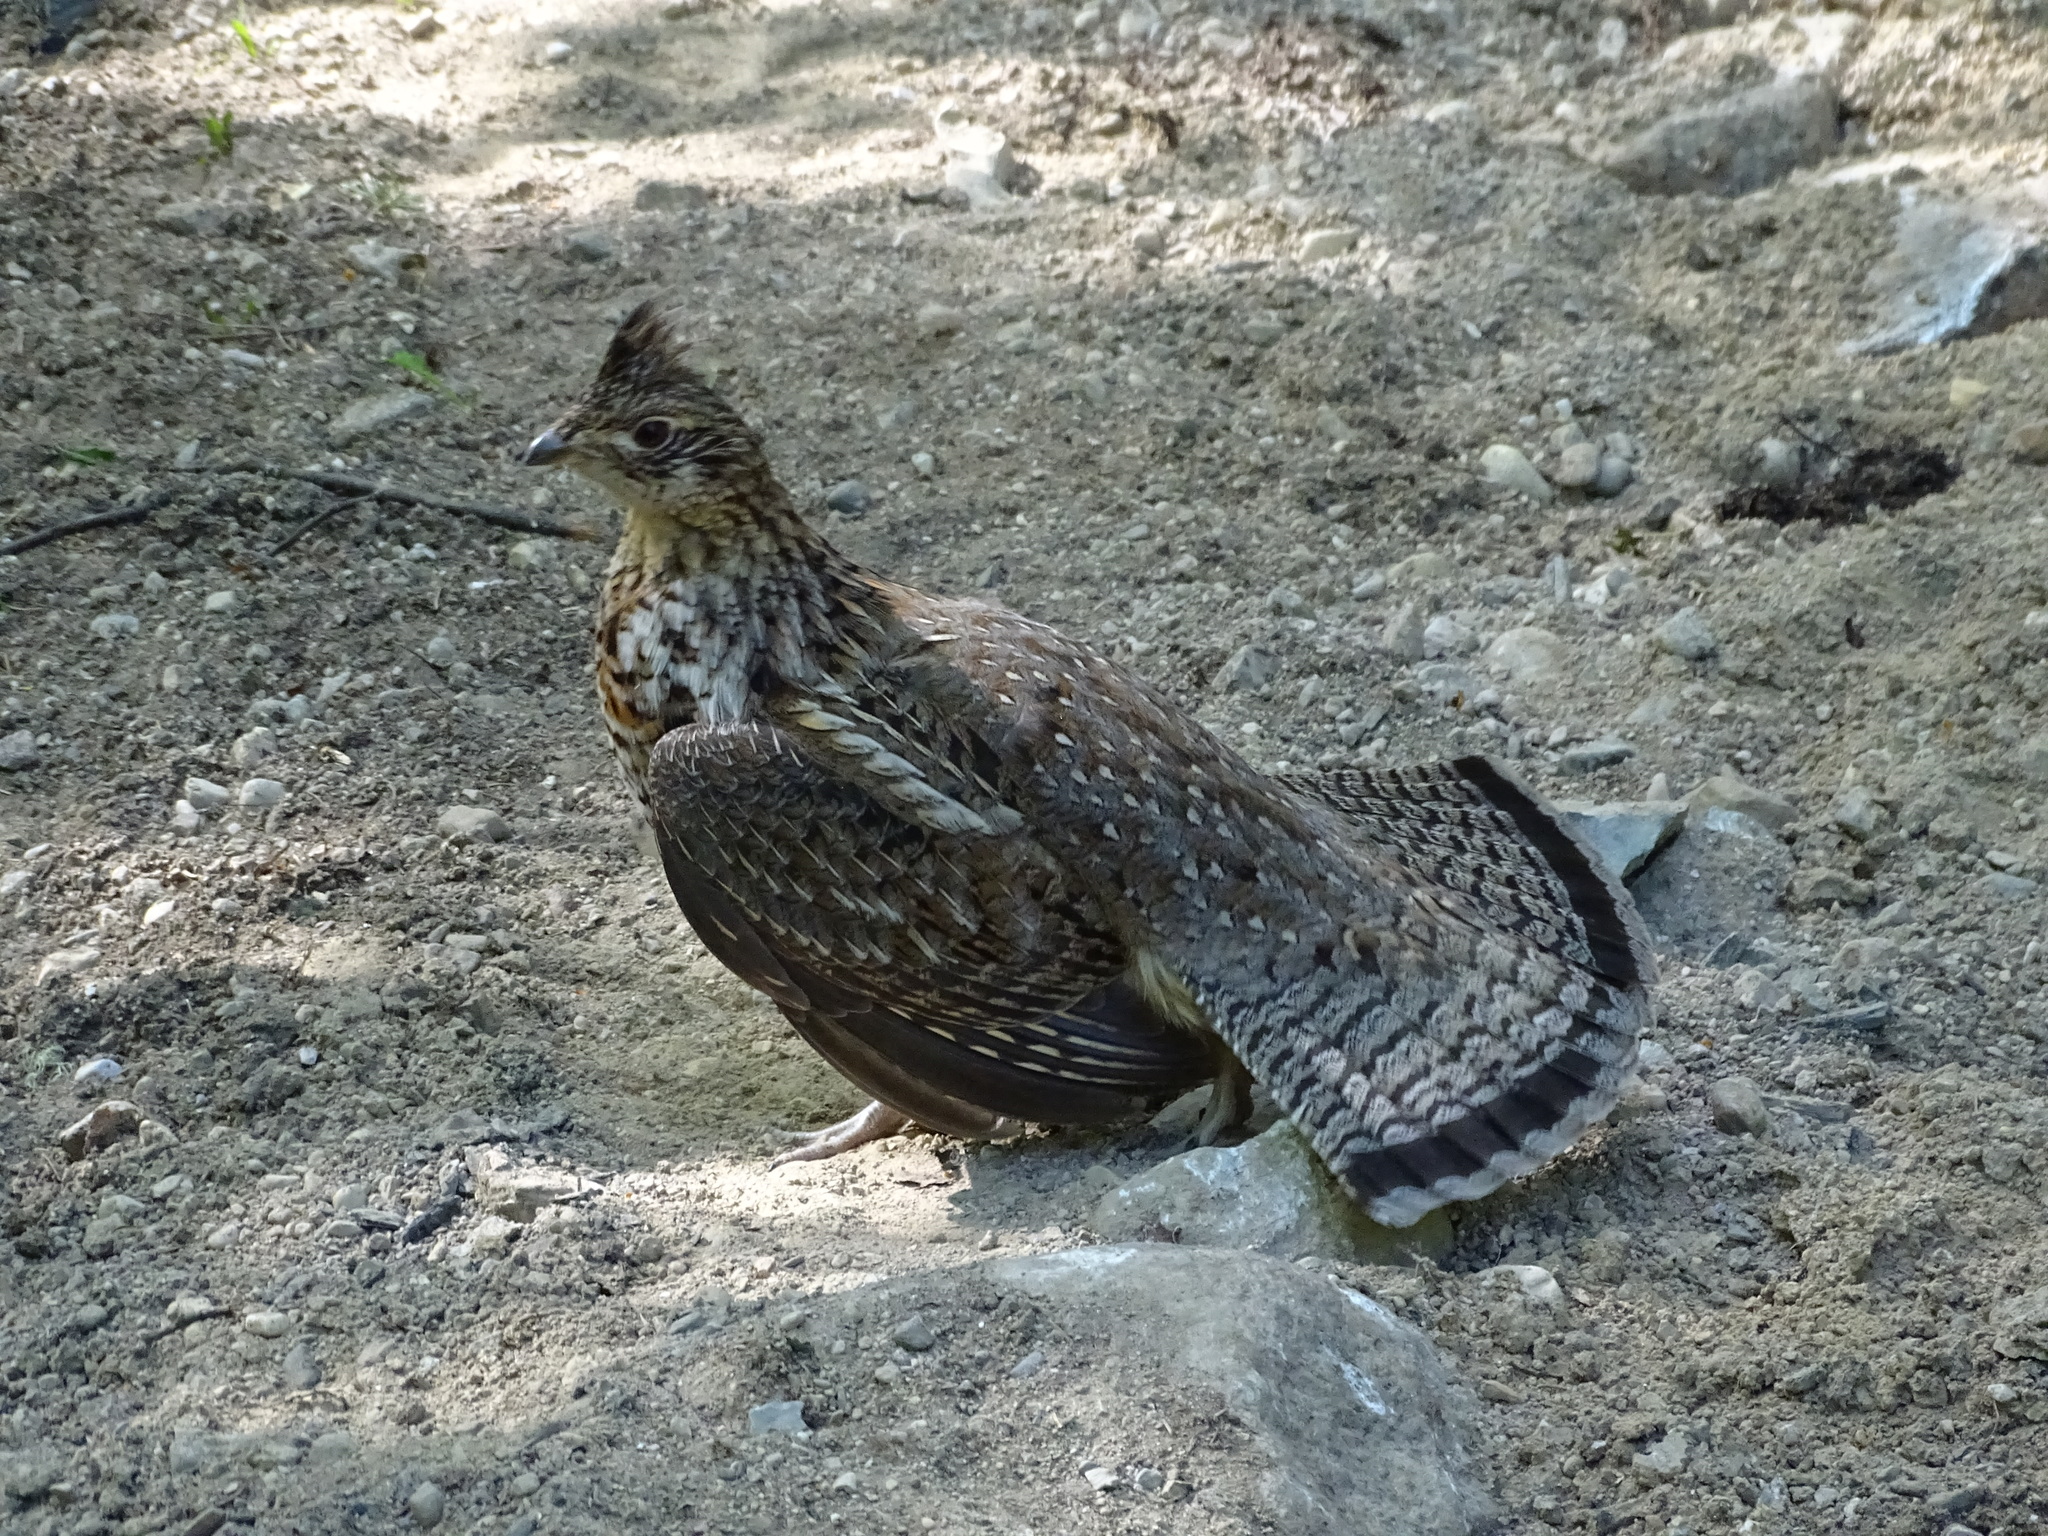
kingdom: Animalia
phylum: Chordata
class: Aves
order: Galliformes
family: Phasianidae
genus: Bonasa
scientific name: Bonasa umbellus
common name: Ruffed grouse
